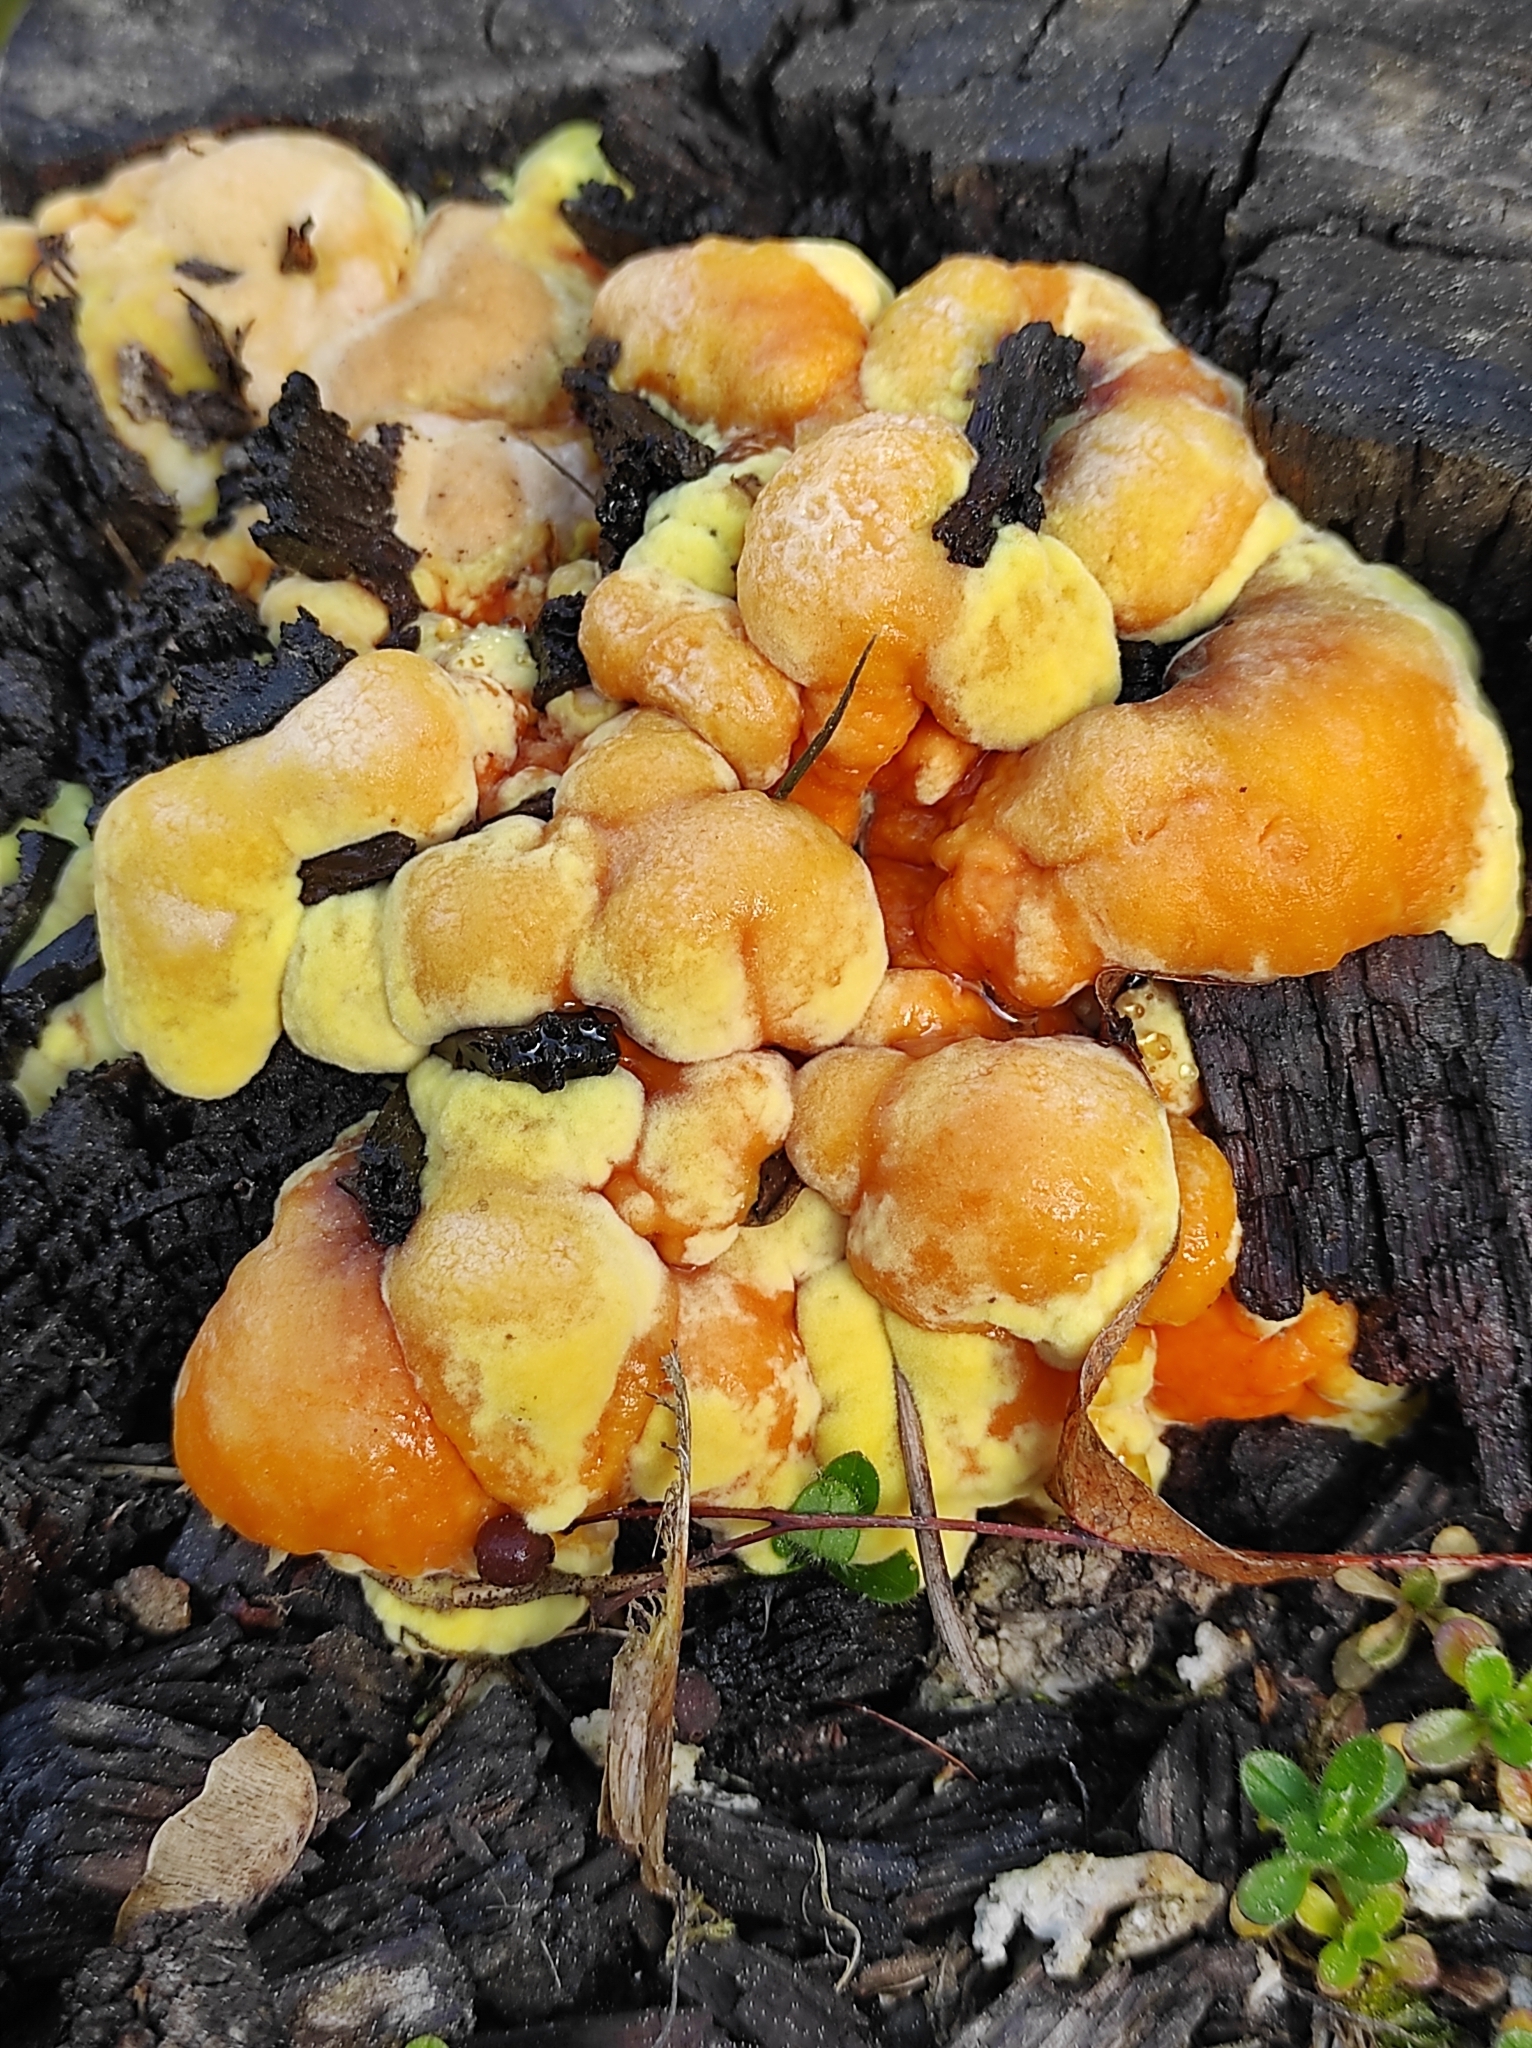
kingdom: Fungi
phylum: Basidiomycota
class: Agaricomycetes
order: Polyporales
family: Laetiporaceae
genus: Laetiporus
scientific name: Laetiporus sulphureus
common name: Chicken of the woods
